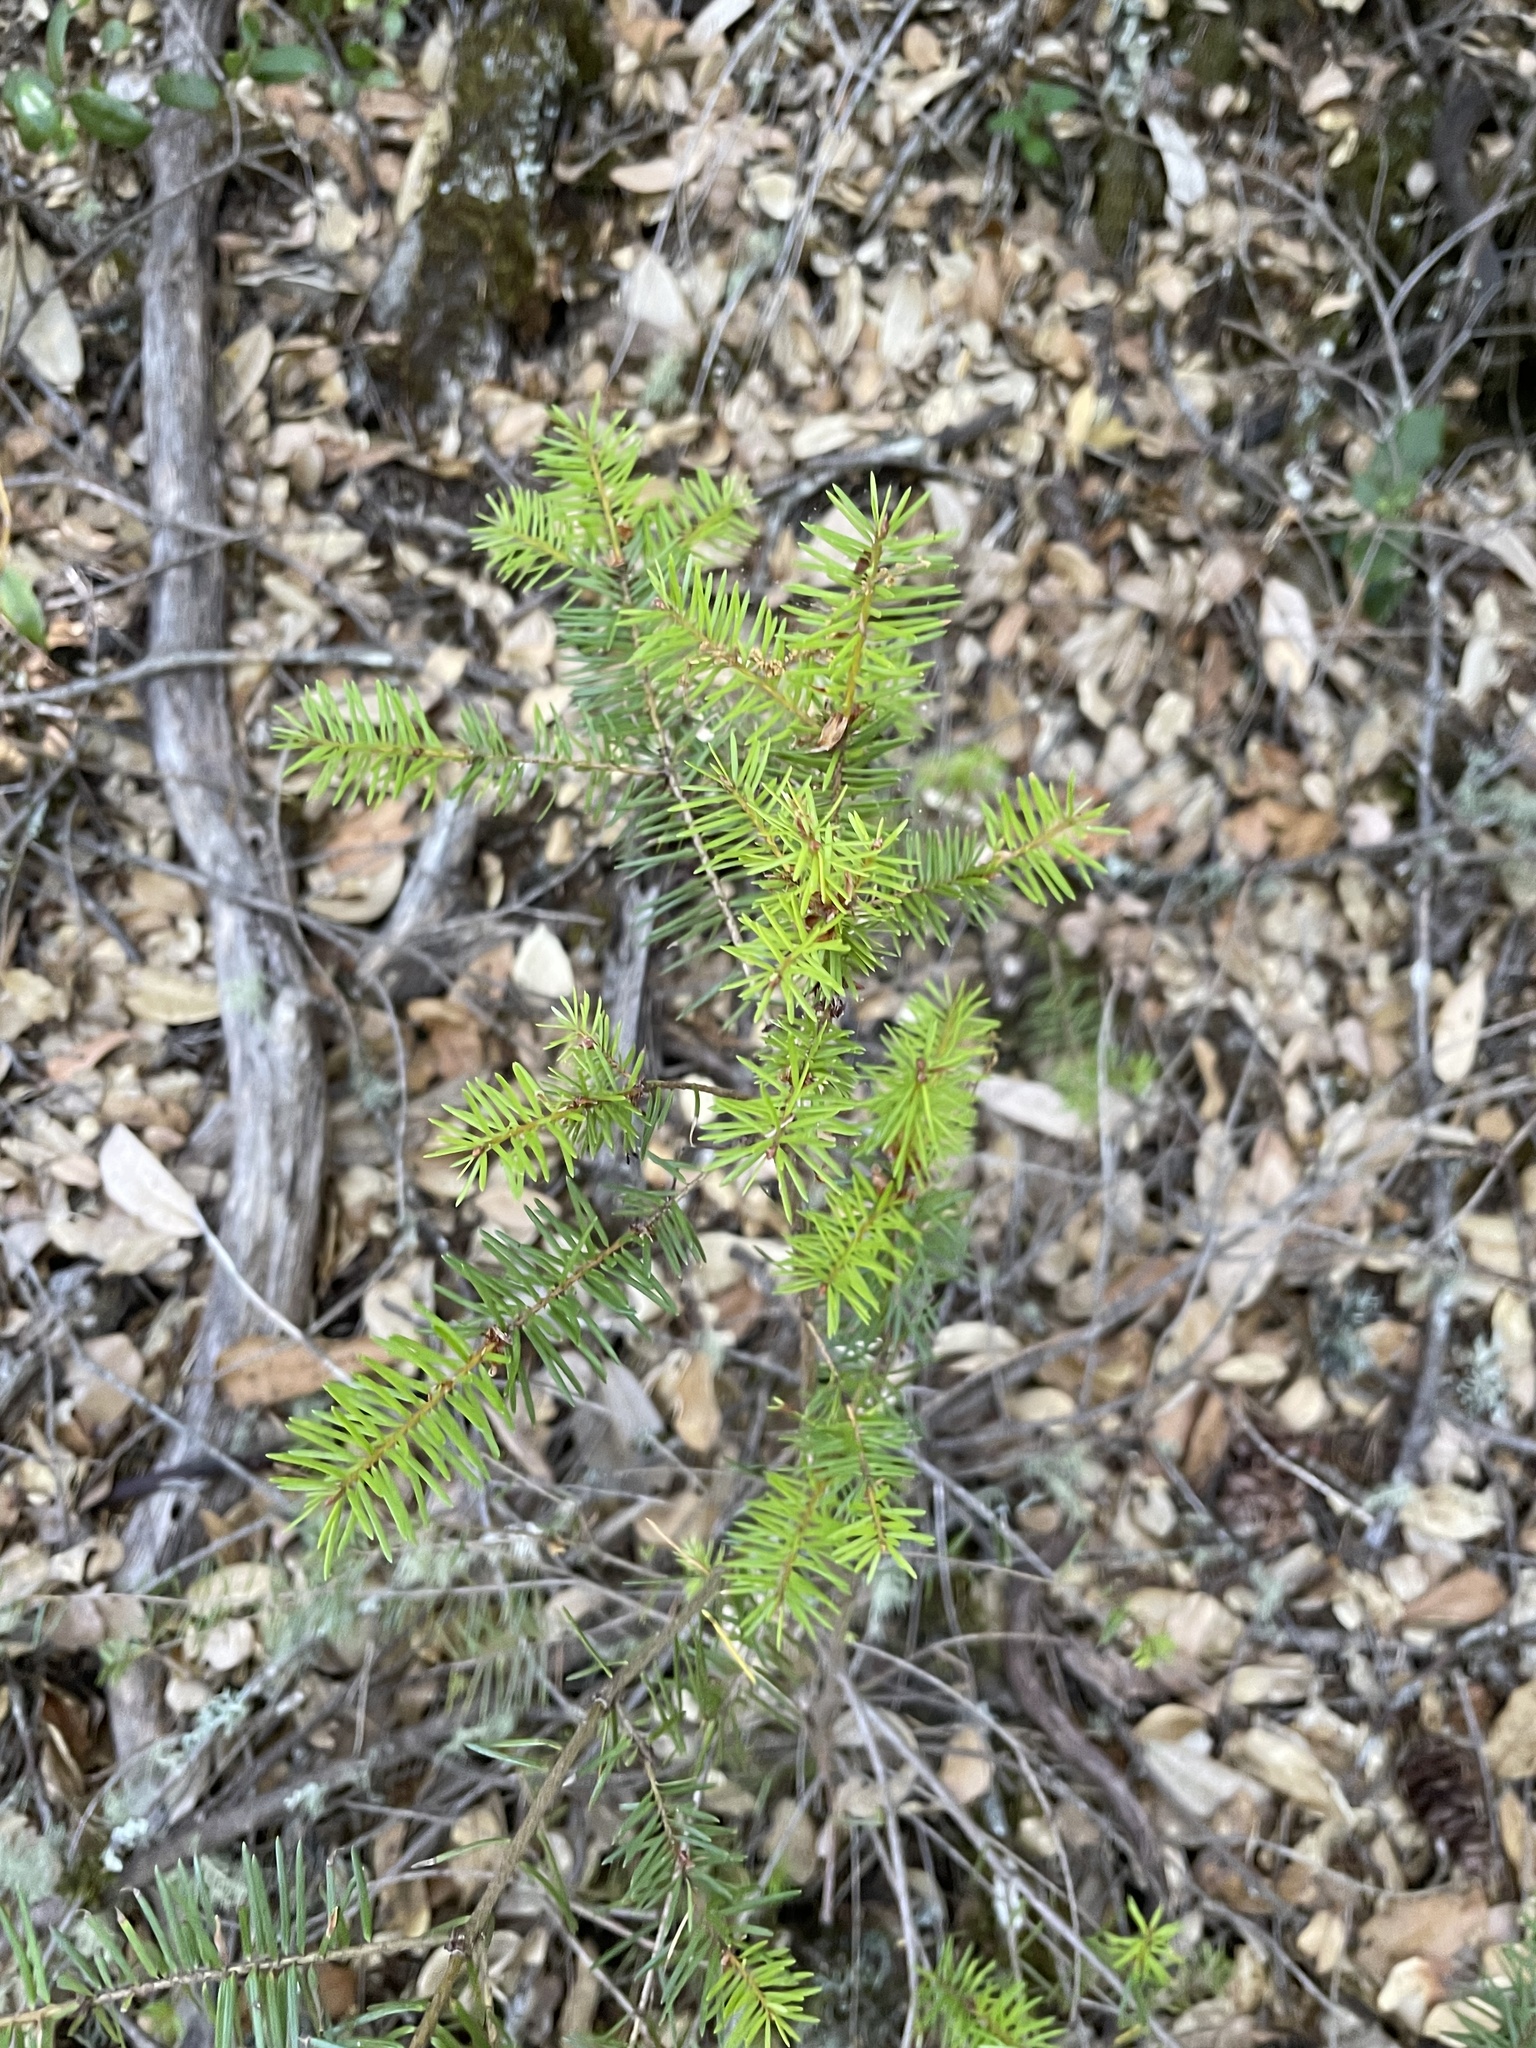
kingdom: Plantae
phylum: Tracheophyta
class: Pinopsida
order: Pinales
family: Pinaceae
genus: Pseudotsuga
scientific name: Pseudotsuga menziesii
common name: Douglas fir
